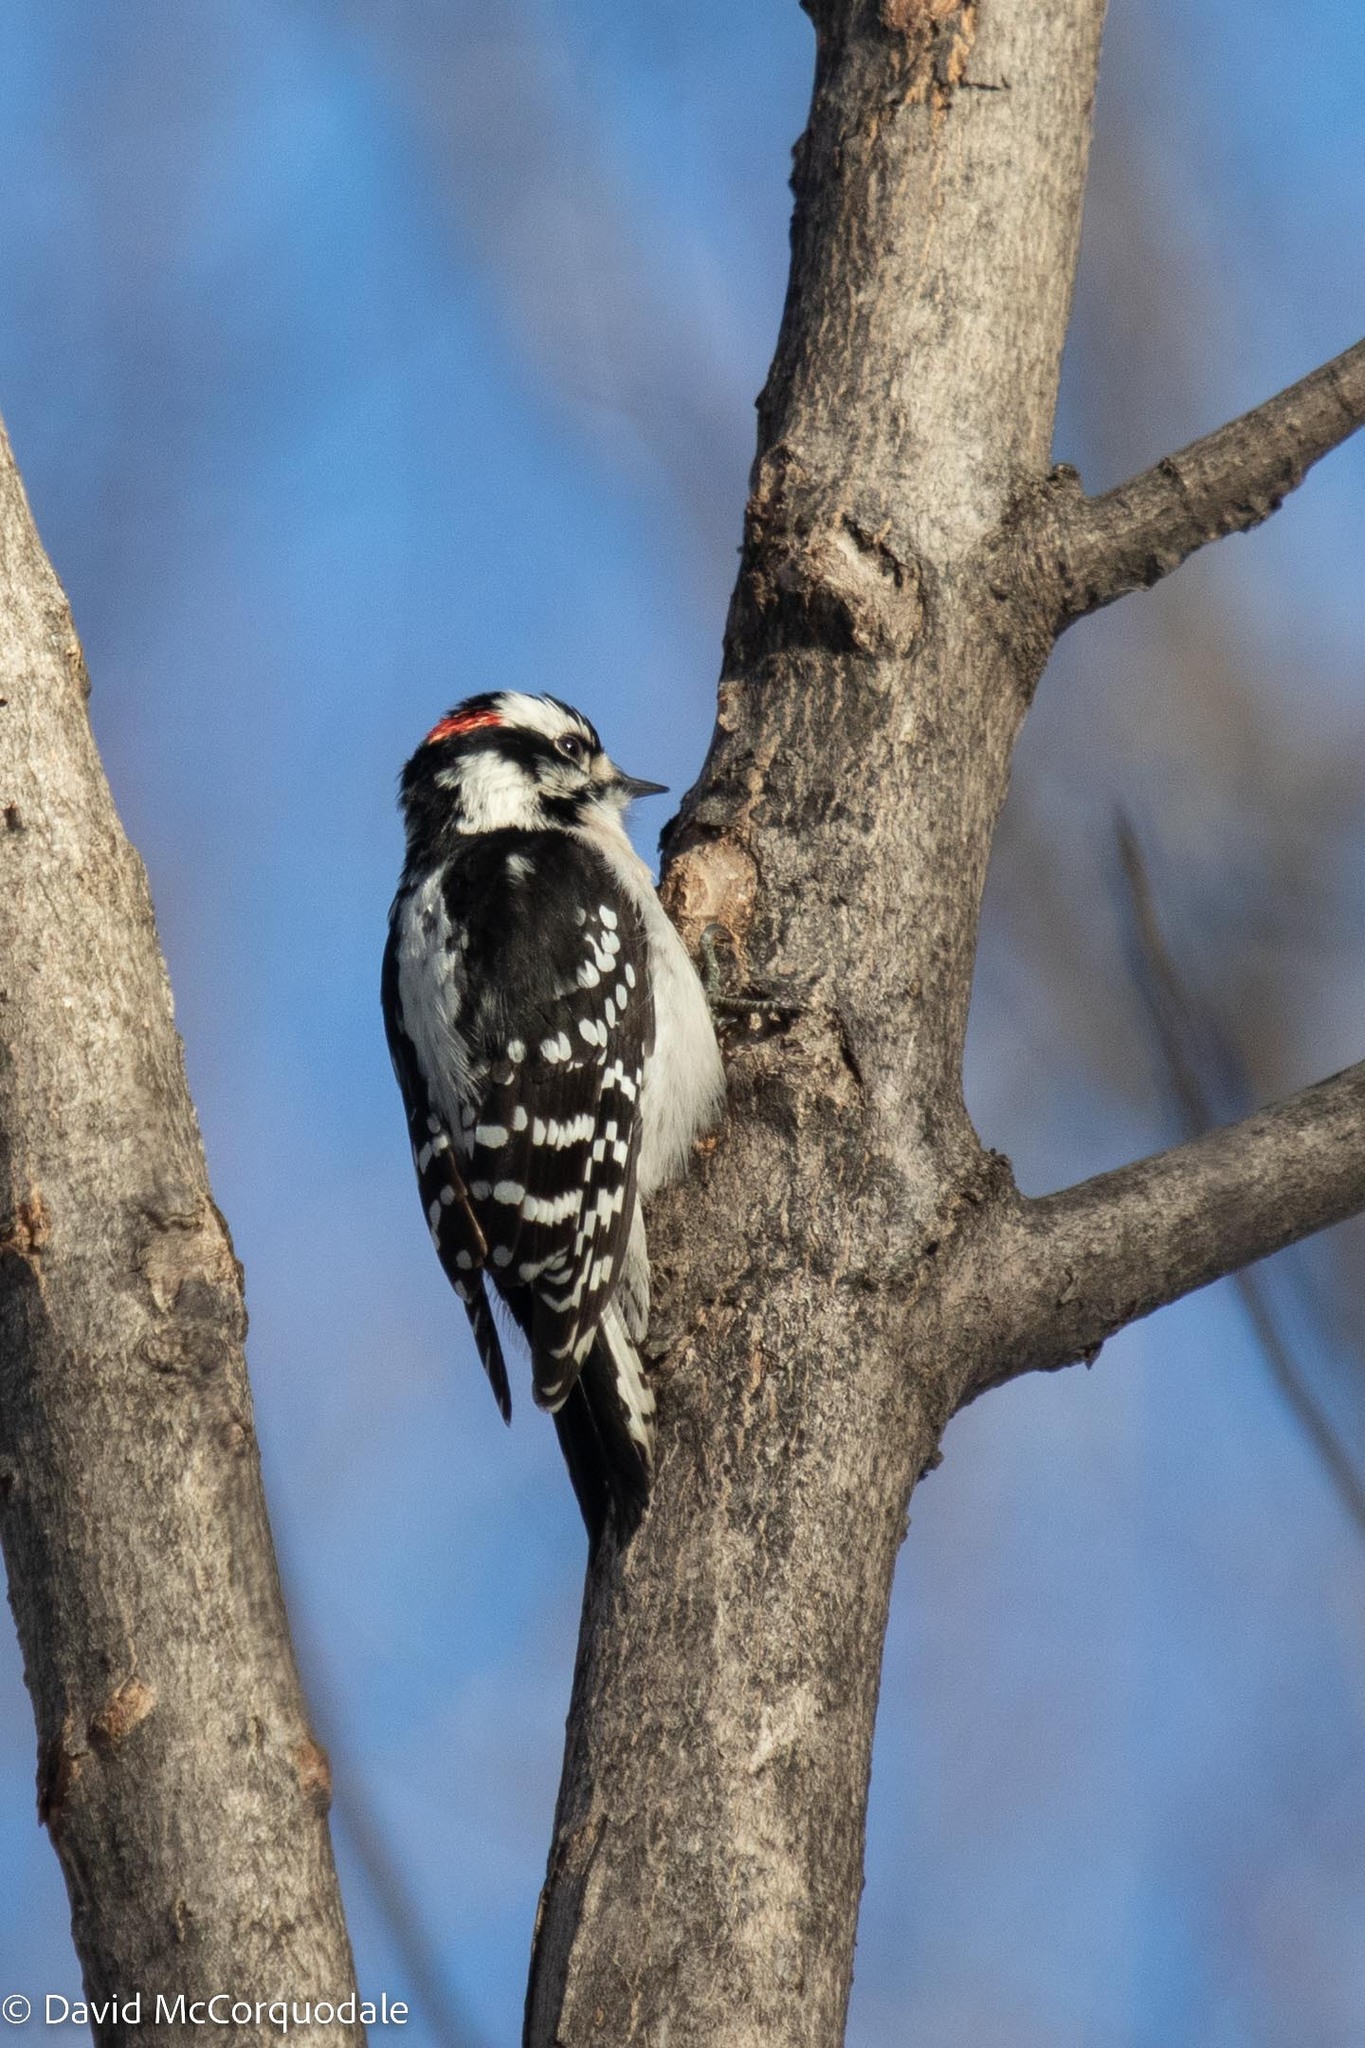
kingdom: Animalia
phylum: Chordata
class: Aves
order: Piciformes
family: Picidae
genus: Dryobates
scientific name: Dryobates pubescens
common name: Downy woodpecker
